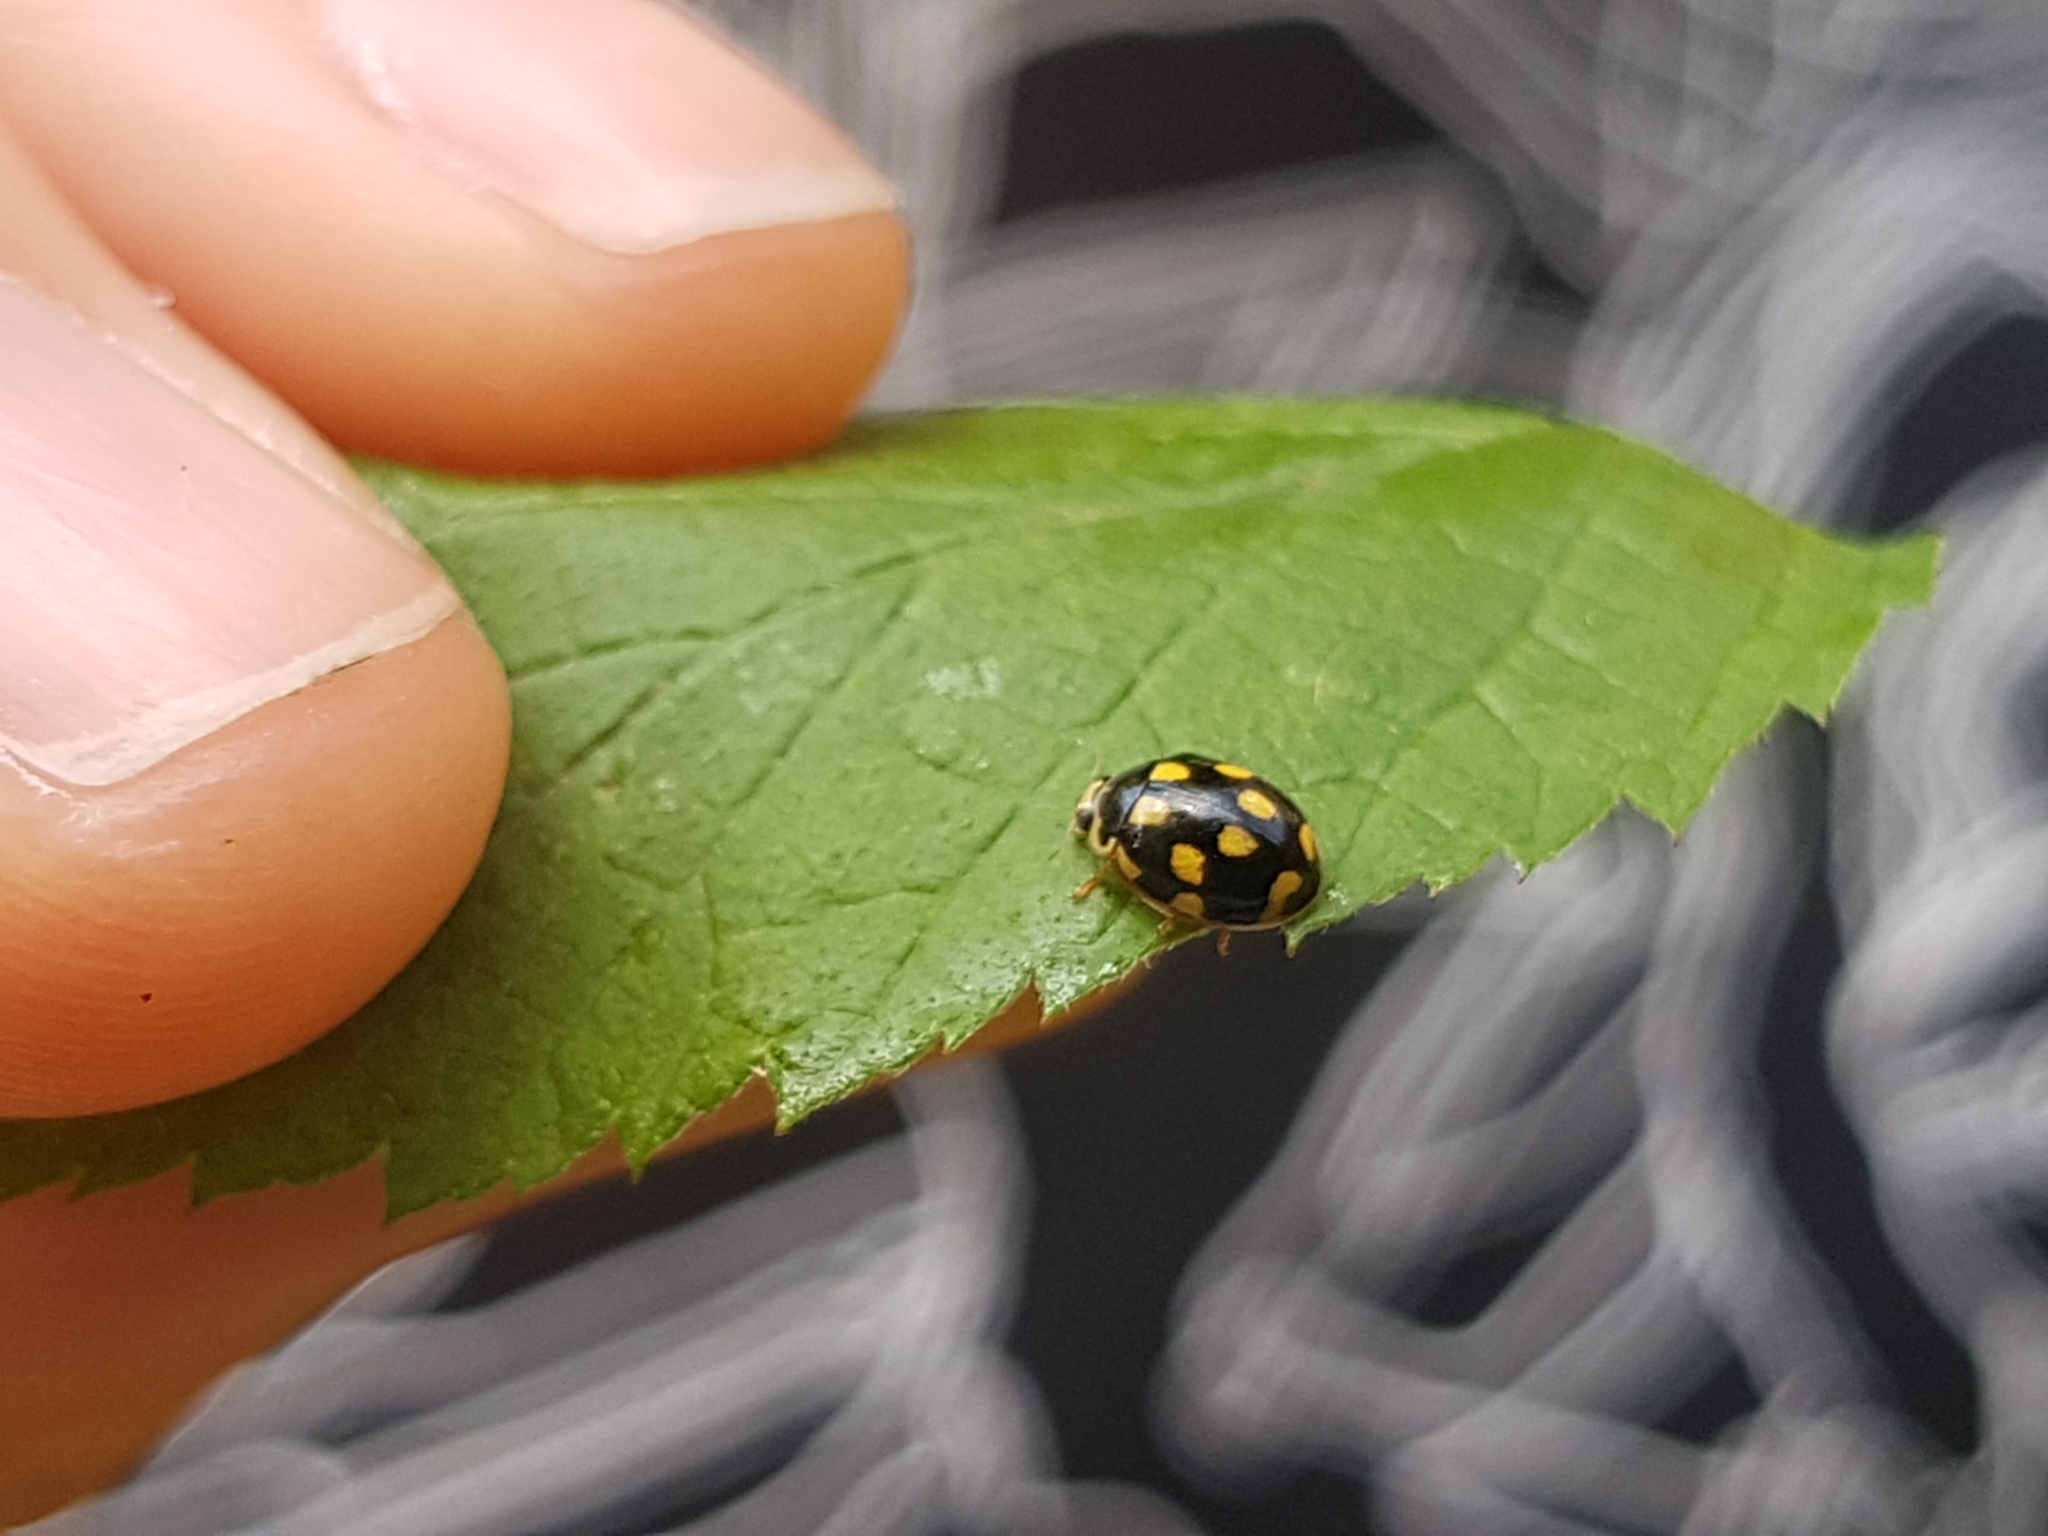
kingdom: Animalia
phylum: Arthropoda
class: Insecta
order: Coleoptera
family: Coccinellidae
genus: Propylaea
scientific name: Propylaea quatuordecimpunctata
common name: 14-spotted ladybird beetle
